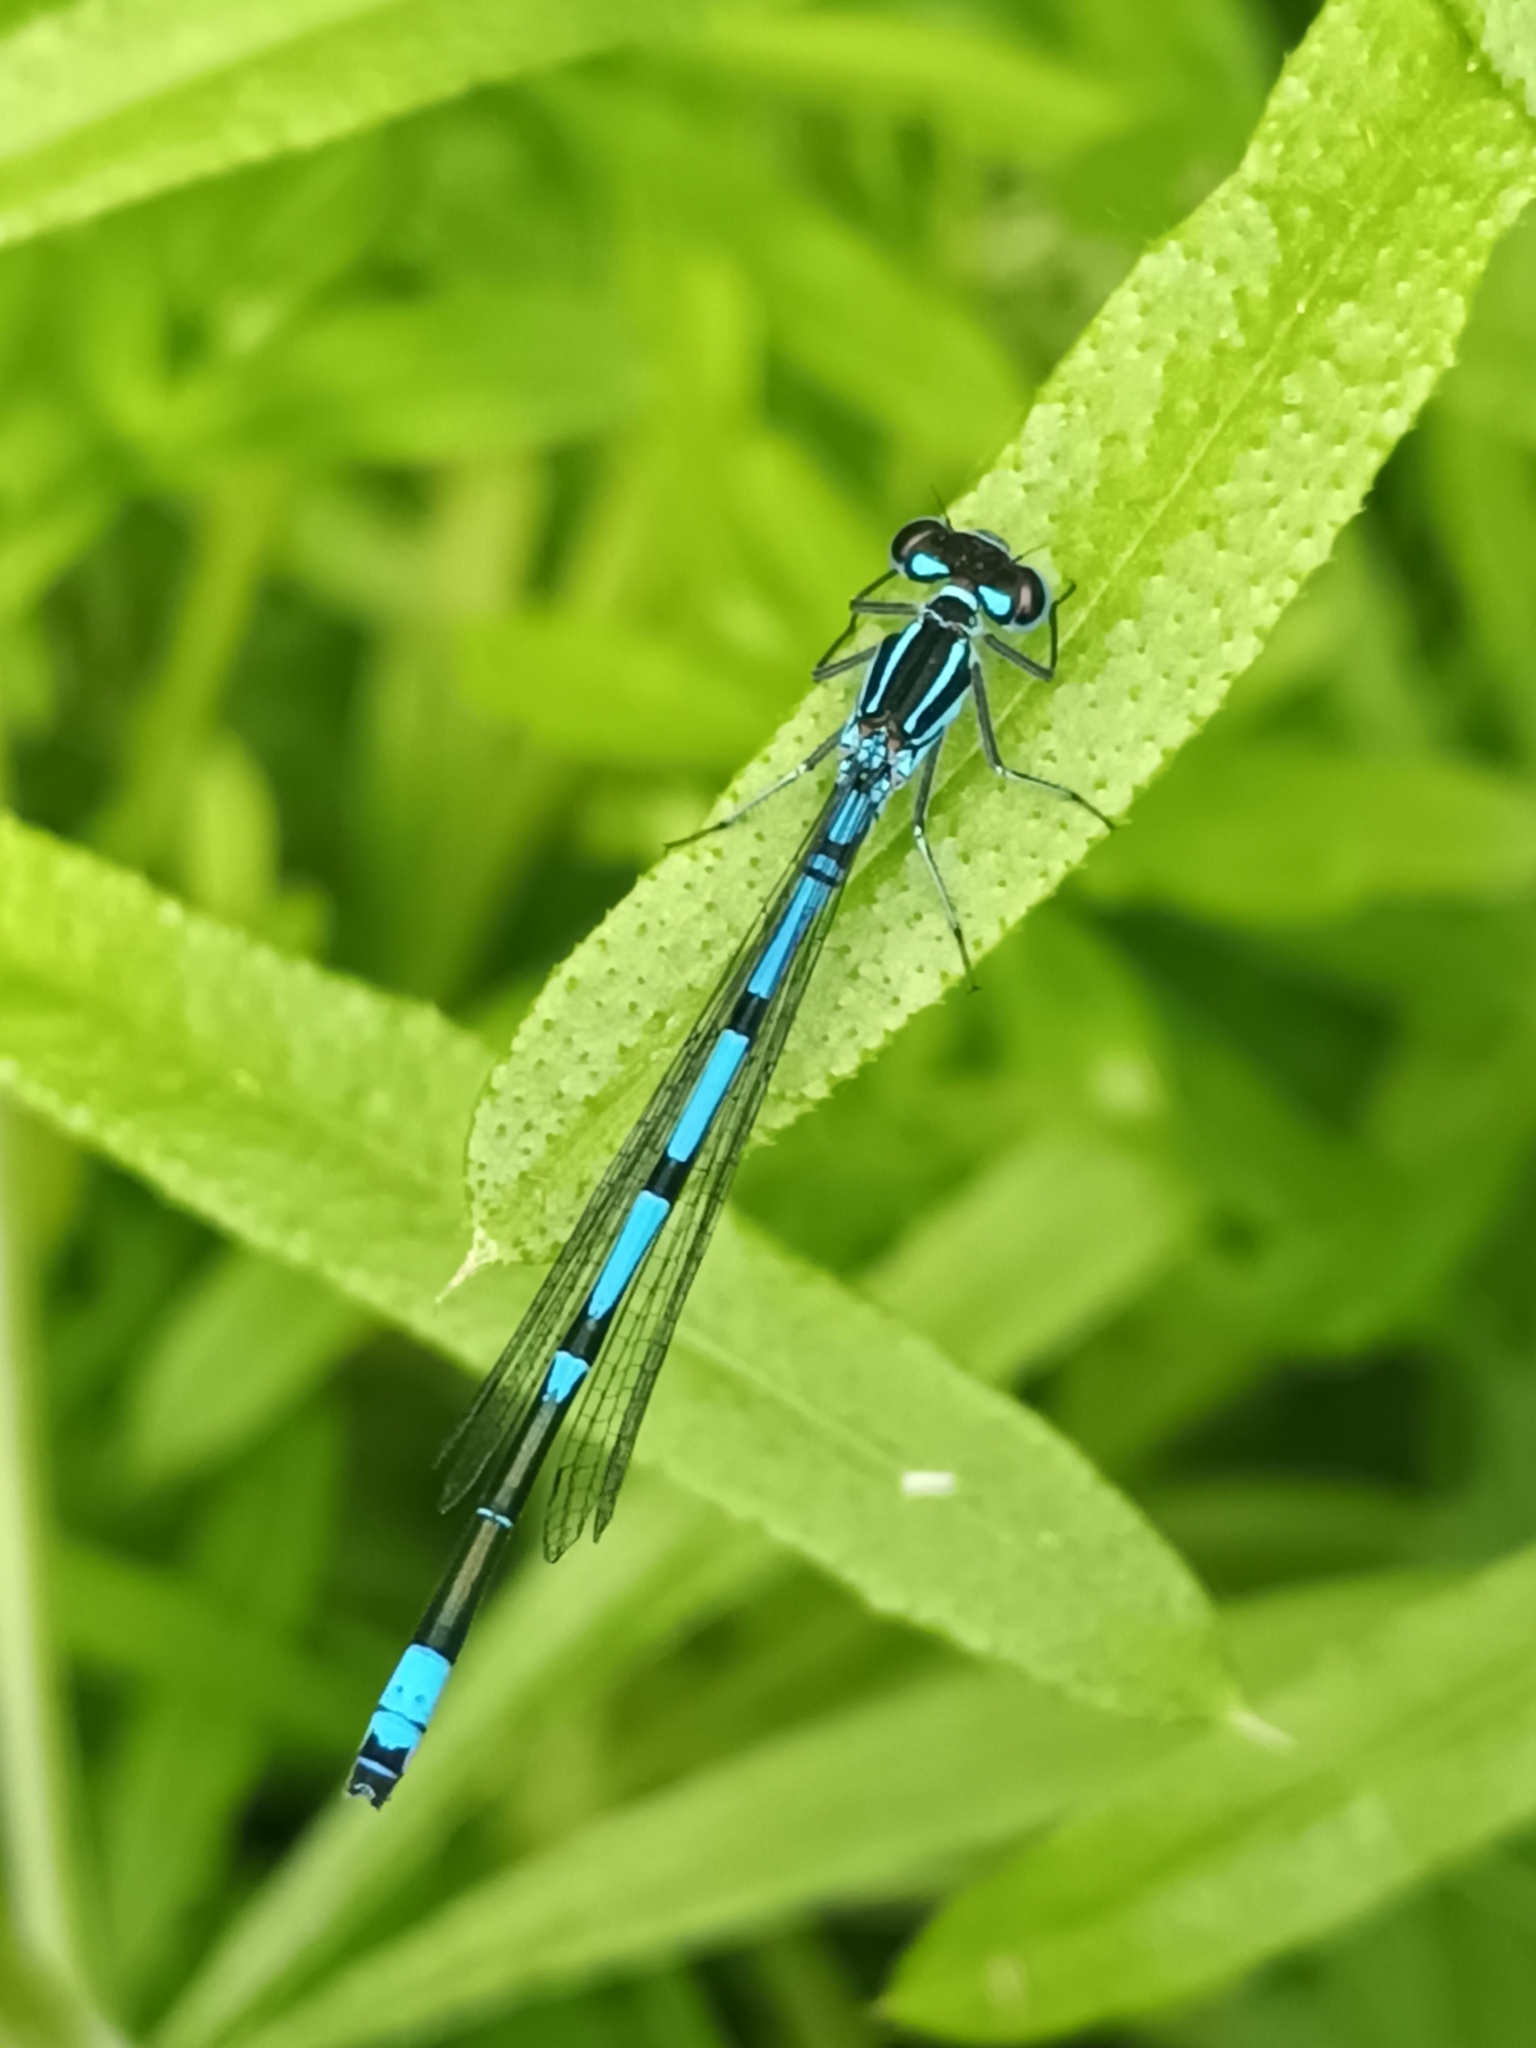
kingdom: Animalia
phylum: Arthropoda
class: Insecta
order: Odonata
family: Coenagrionidae
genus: Coenagrion
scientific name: Coenagrion puella
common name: Azure damselfly
